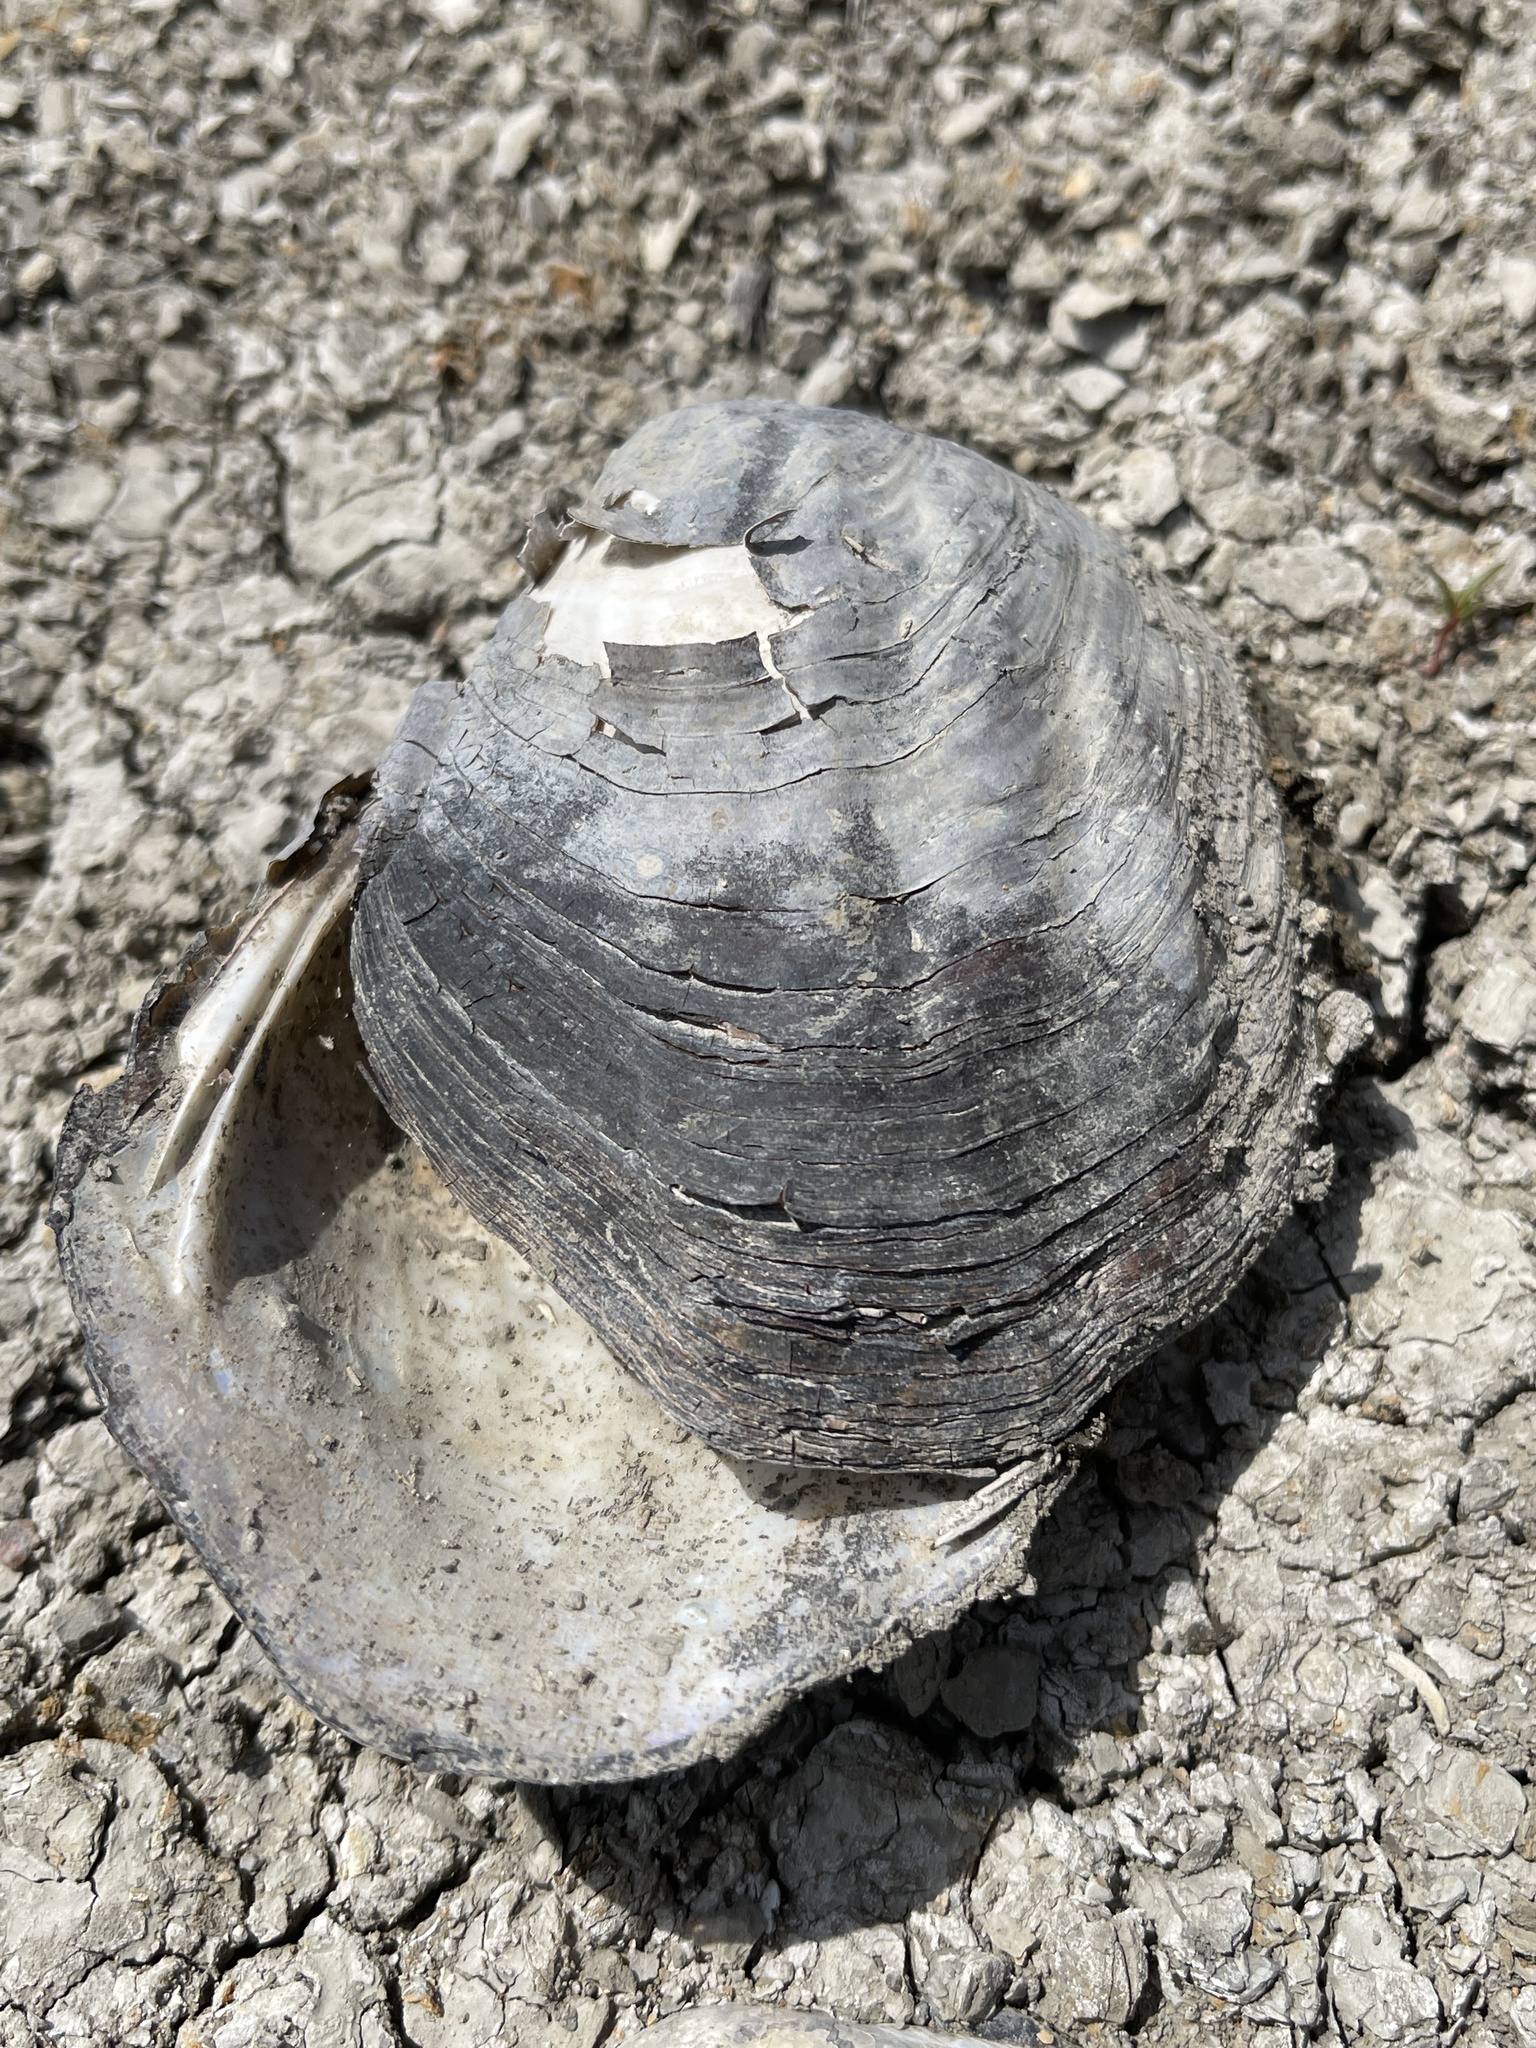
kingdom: Animalia
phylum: Mollusca
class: Bivalvia
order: Unionida
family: Unionidae
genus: Amblema
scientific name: Amblema plicata
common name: Threeridge
